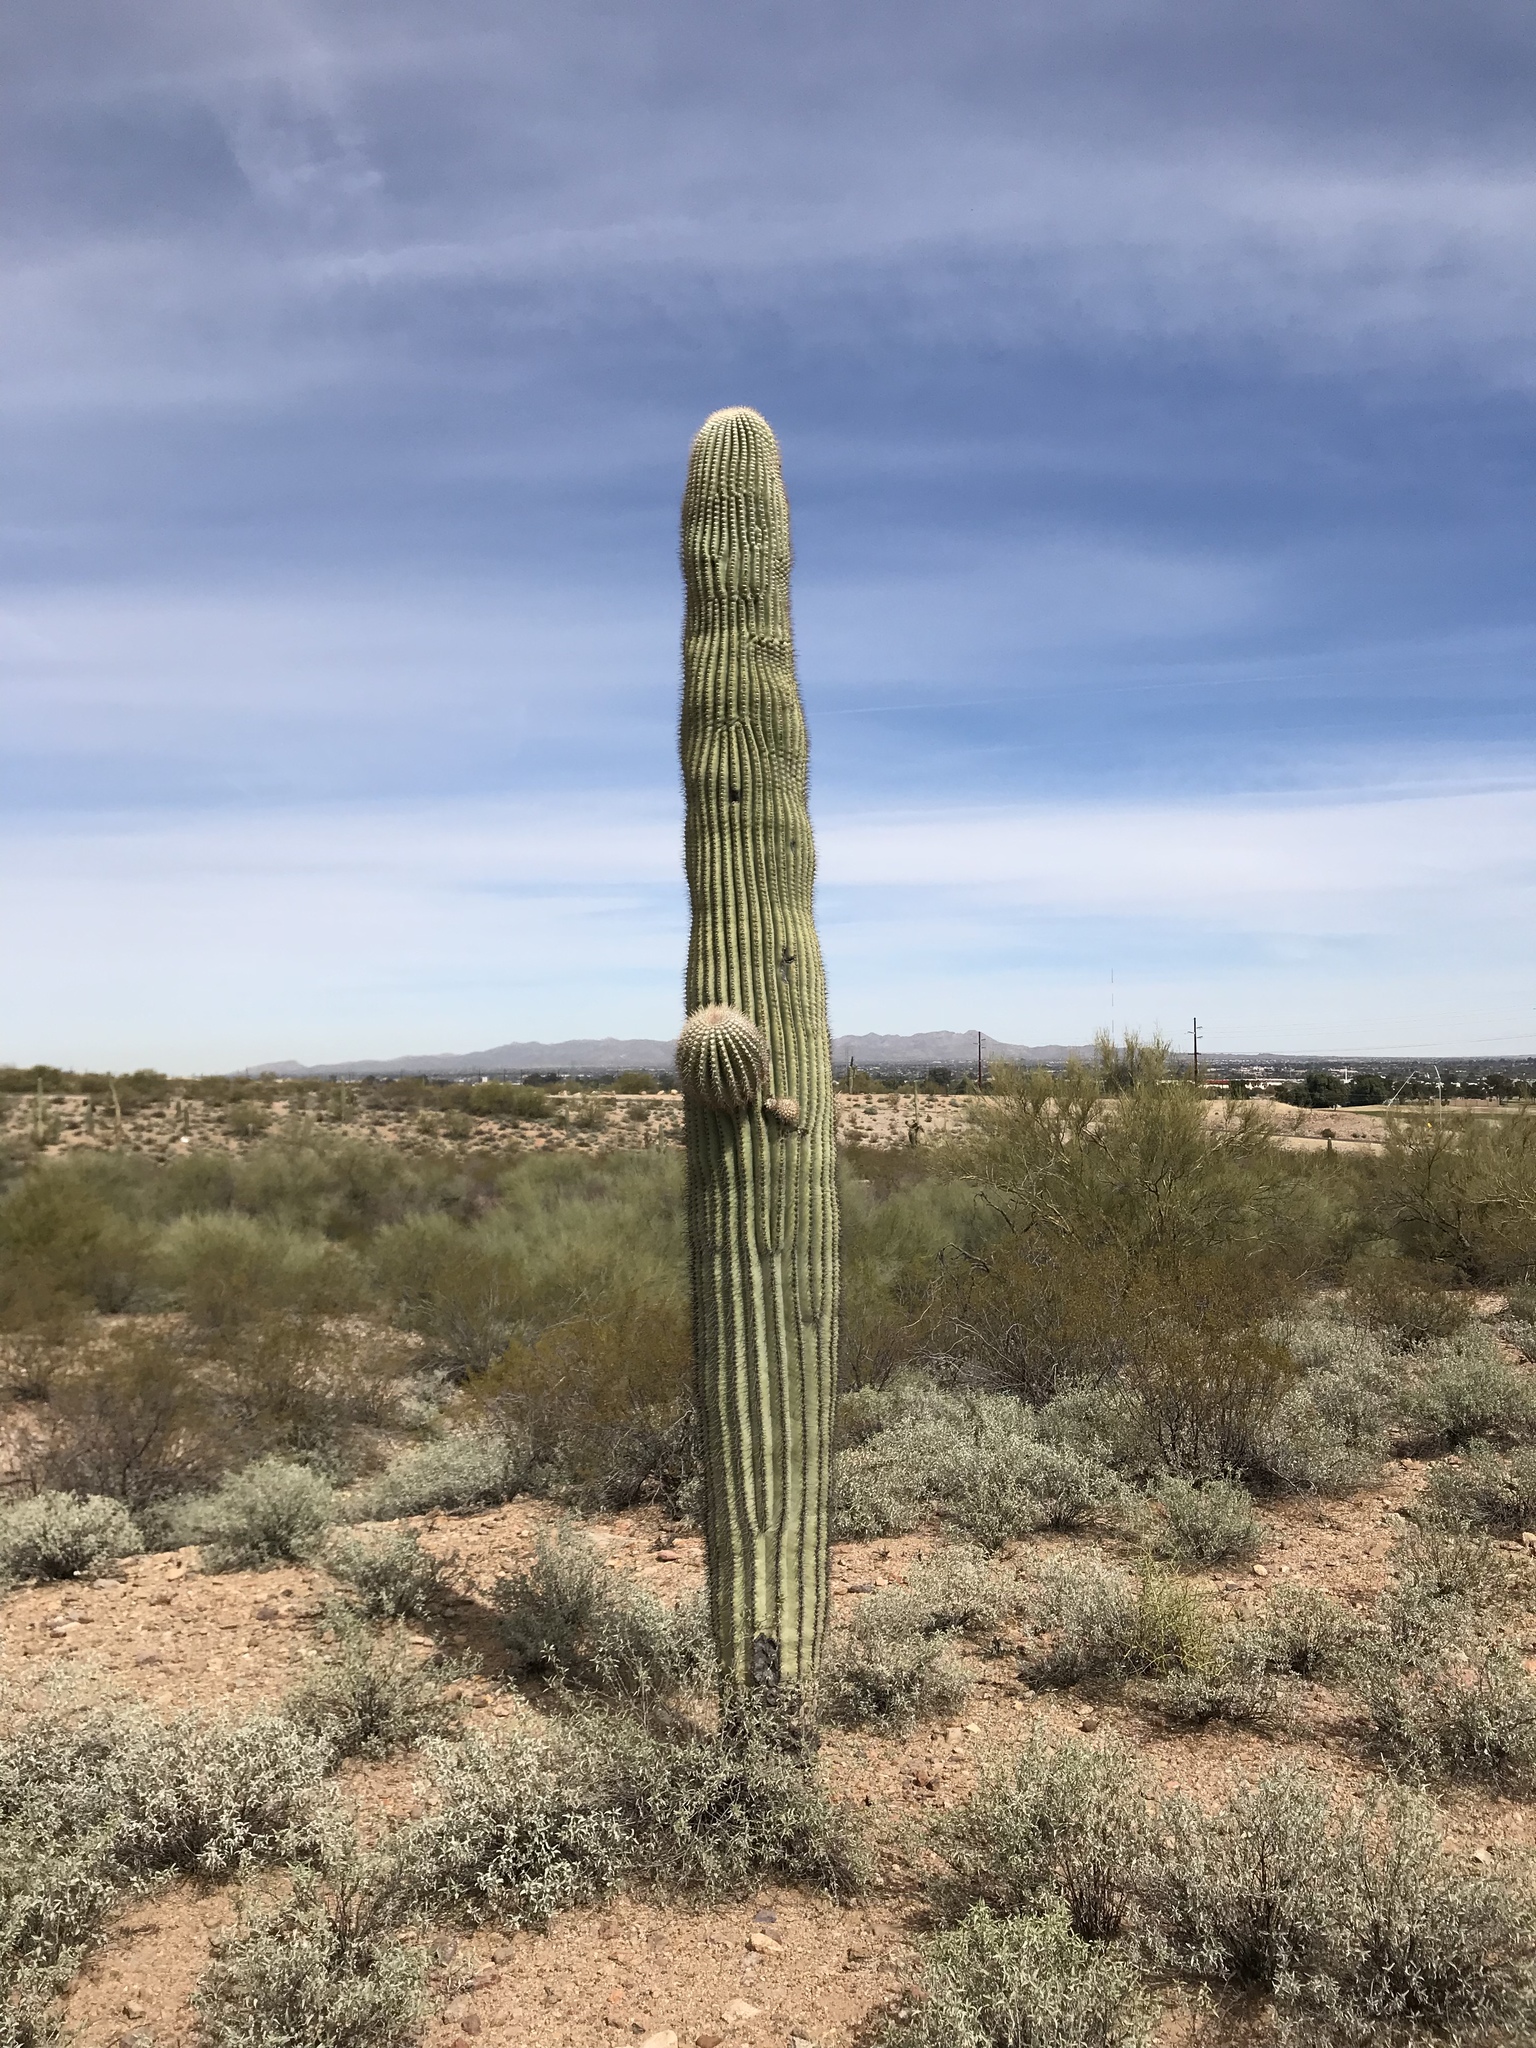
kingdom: Plantae
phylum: Tracheophyta
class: Magnoliopsida
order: Caryophyllales
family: Cactaceae
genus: Carnegiea
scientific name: Carnegiea gigantea
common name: Saguaro
